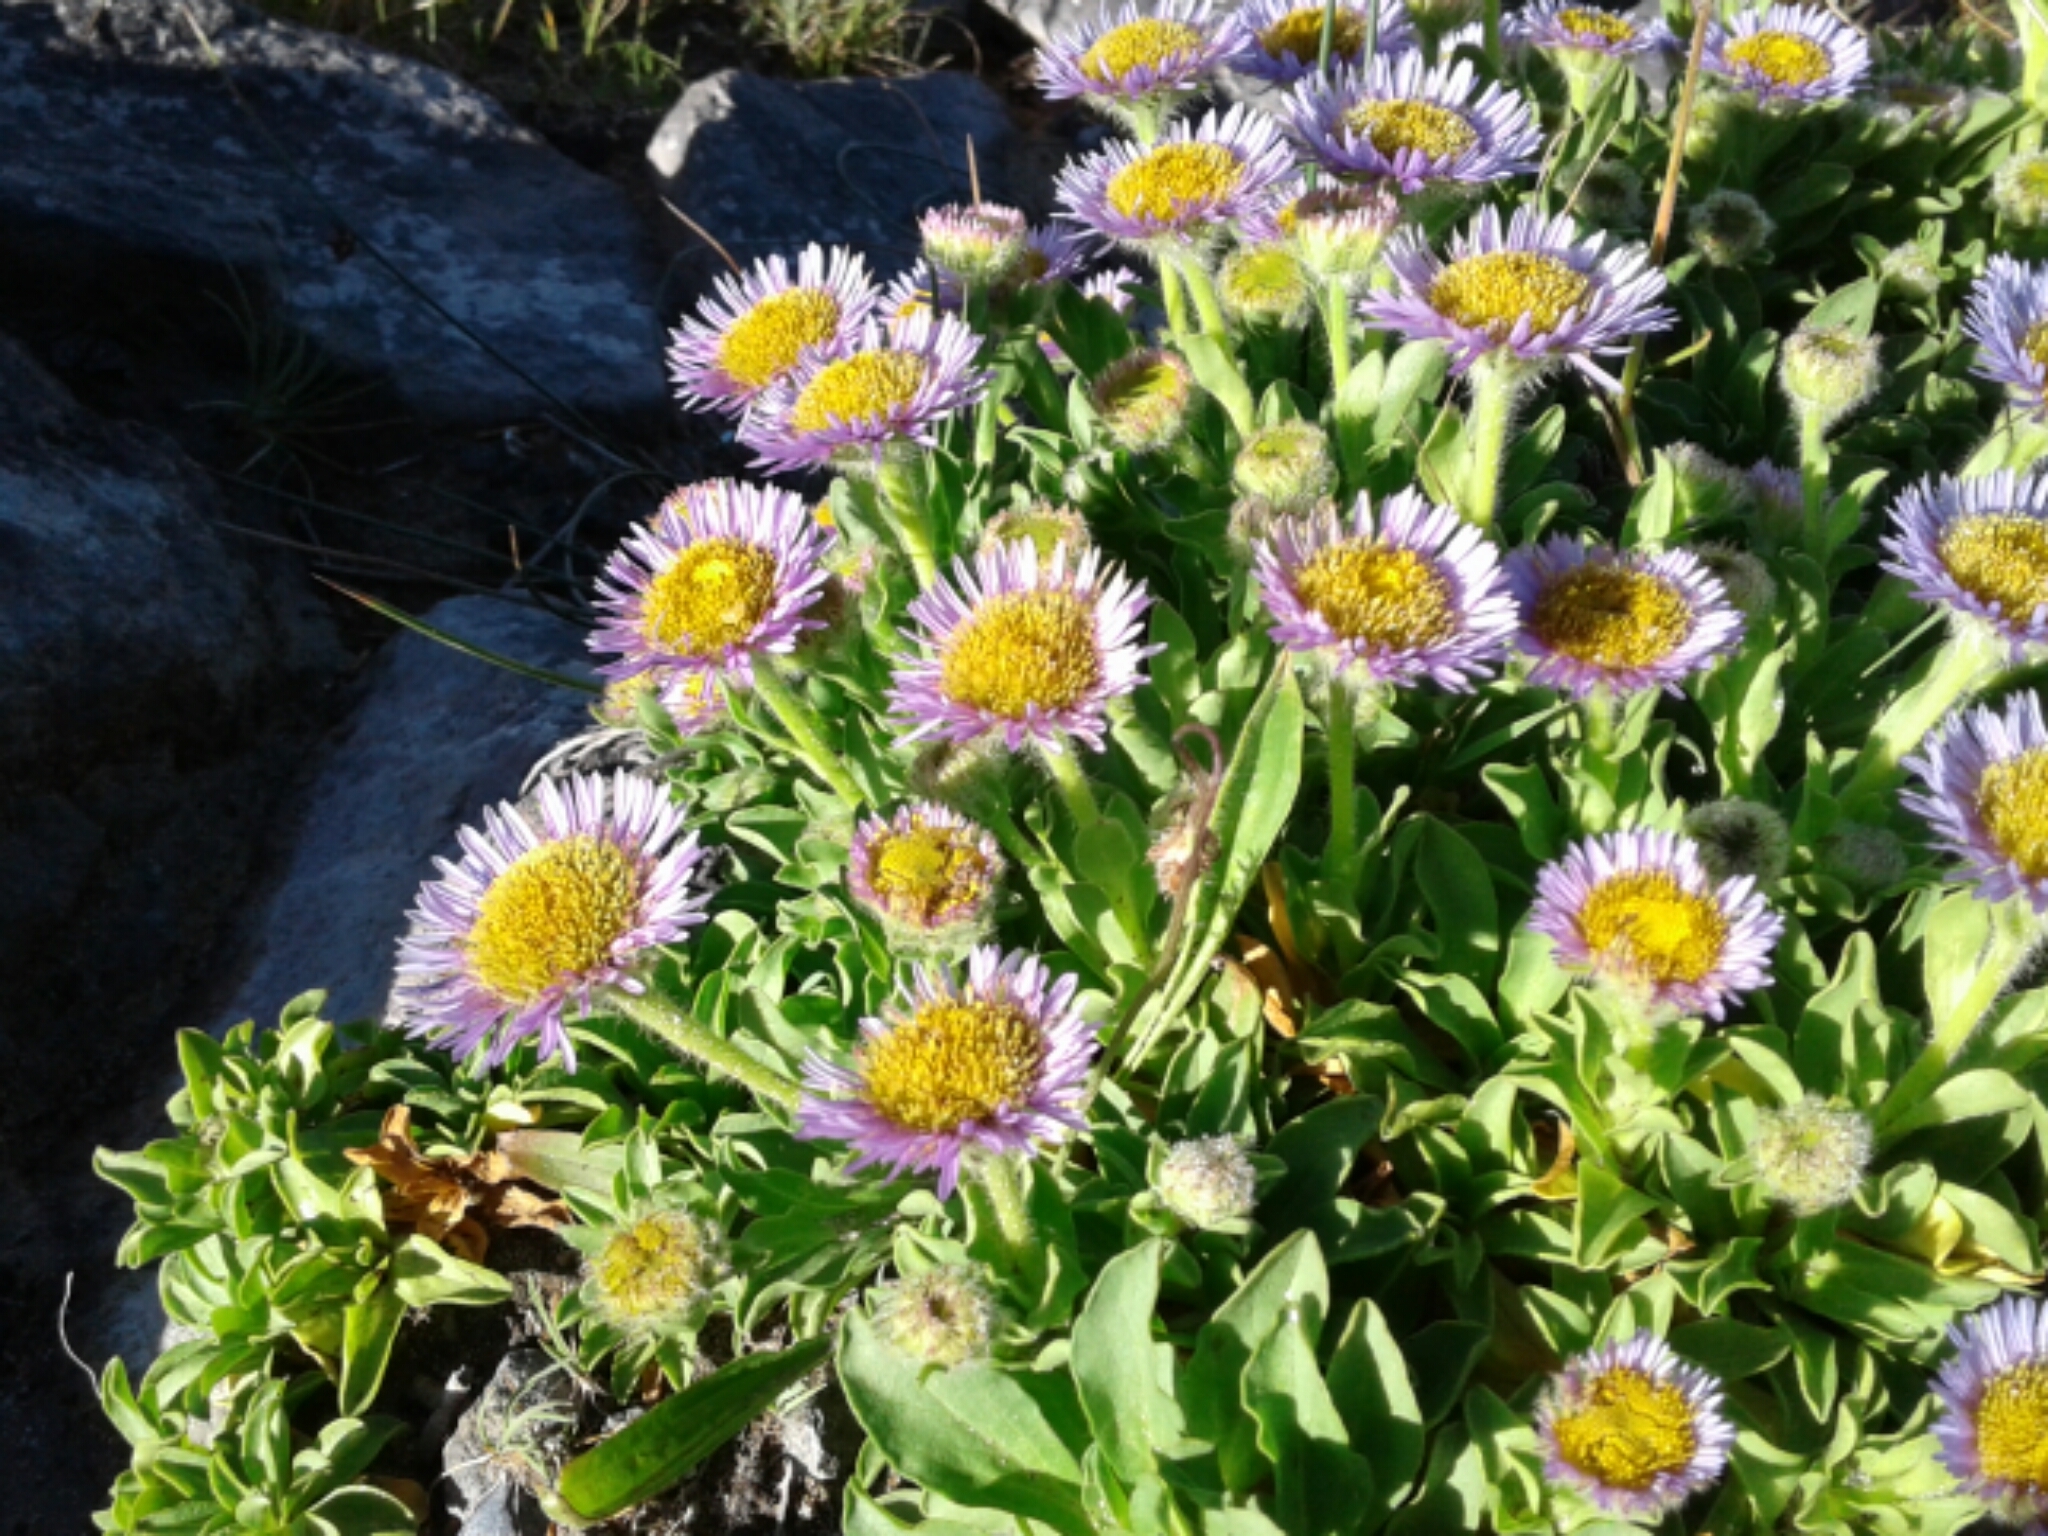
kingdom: Plantae
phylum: Tracheophyta
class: Magnoliopsida
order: Asterales
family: Asteraceae
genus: Erigeron
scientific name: Erigeron glaucus
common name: Seaside daisy
